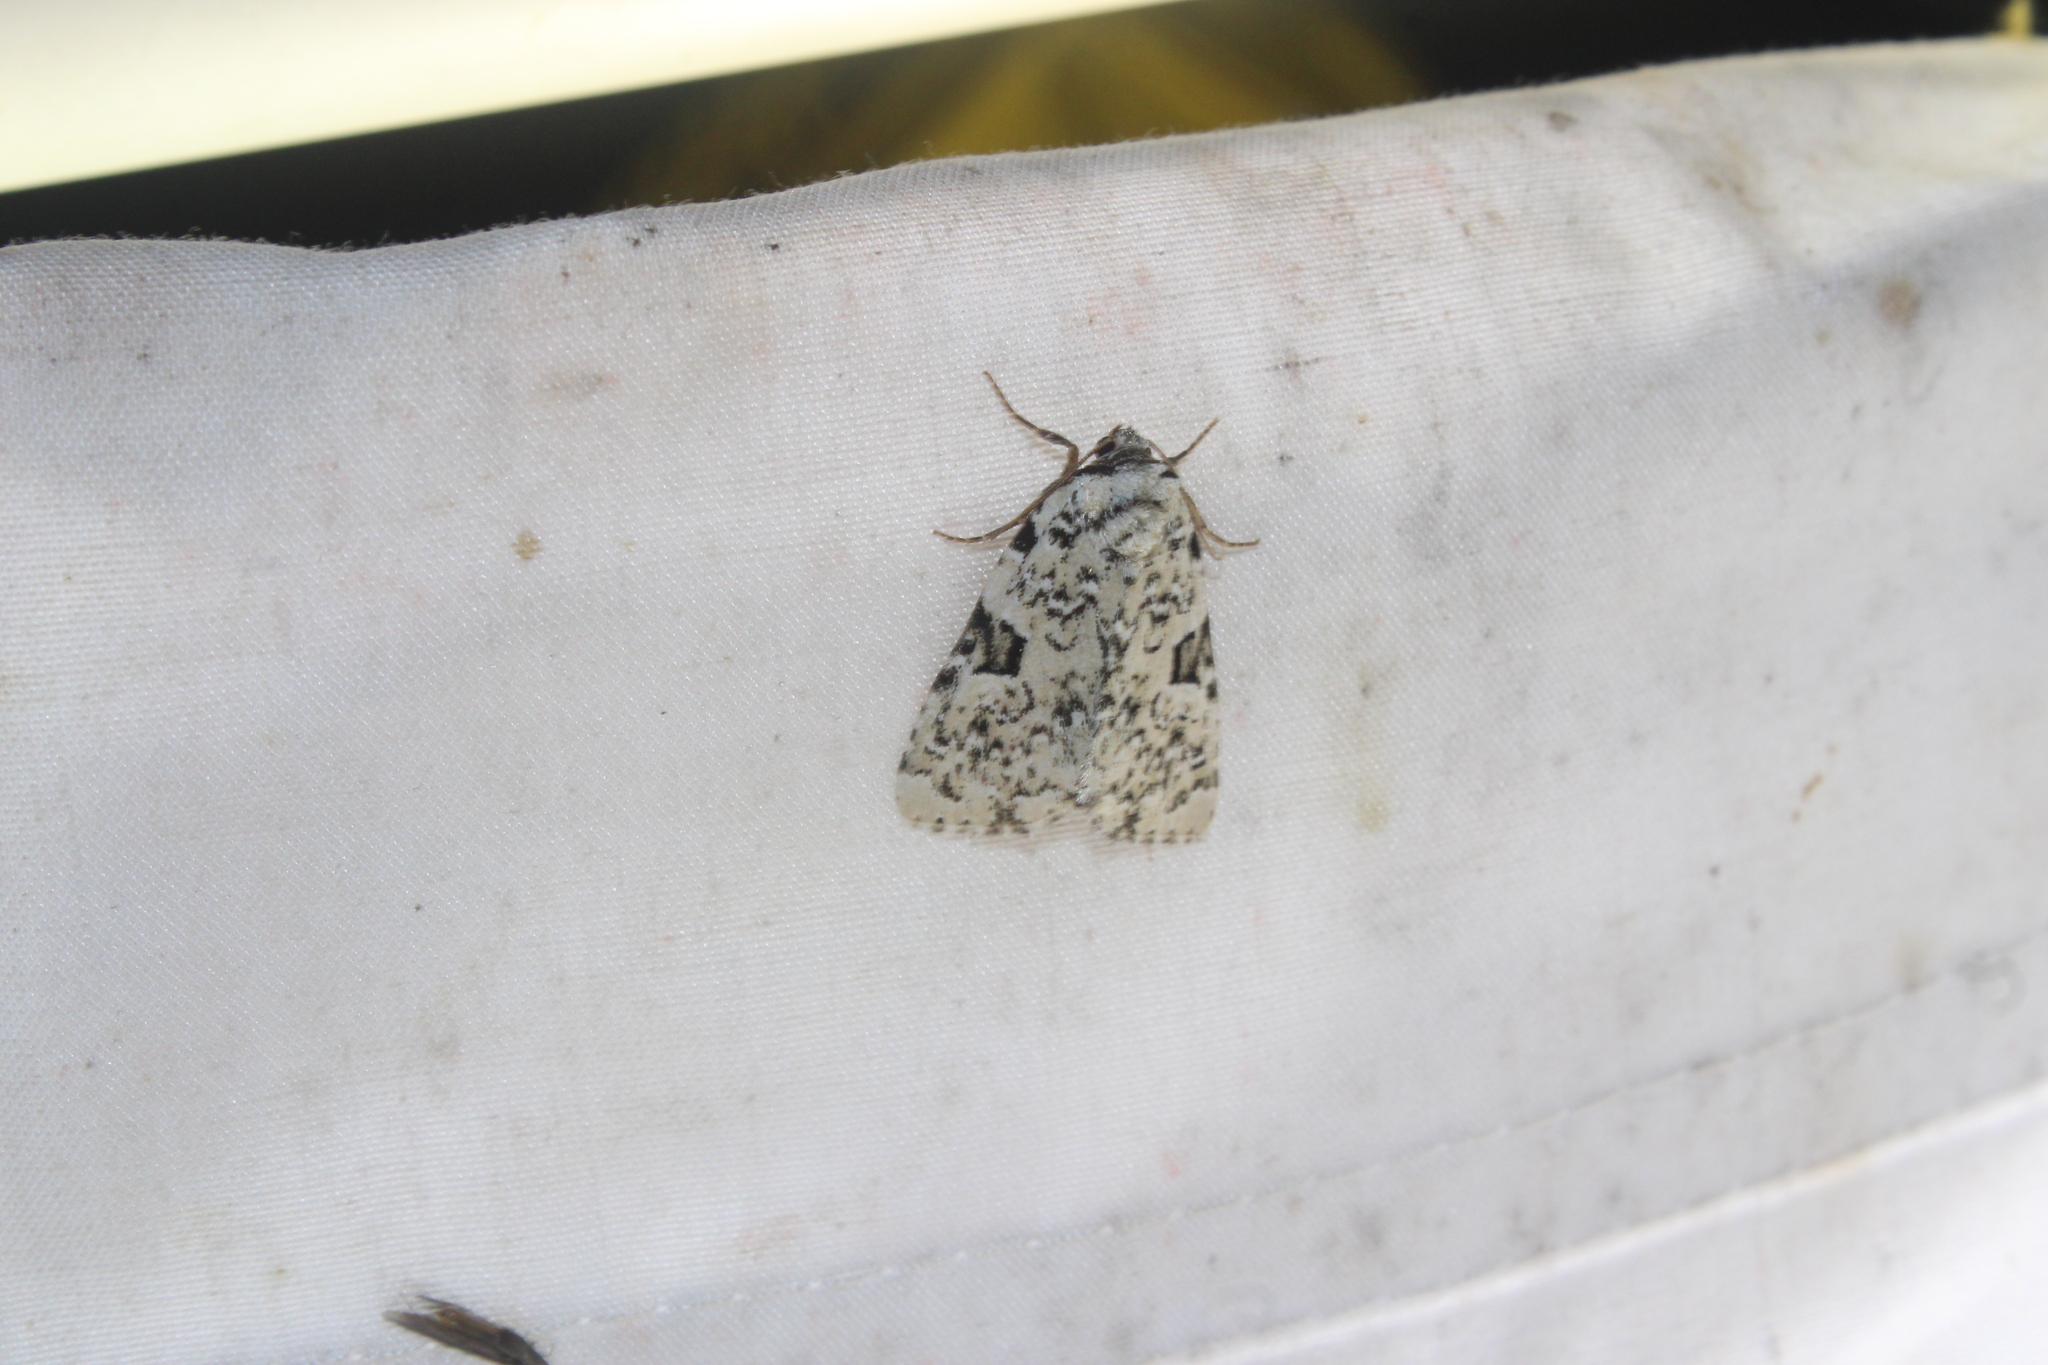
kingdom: Animalia
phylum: Arthropoda
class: Insecta
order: Lepidoptera
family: Noctuidae
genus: Leuconycta
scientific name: Leuconycta diphteroides
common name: Green leuconycta moth
